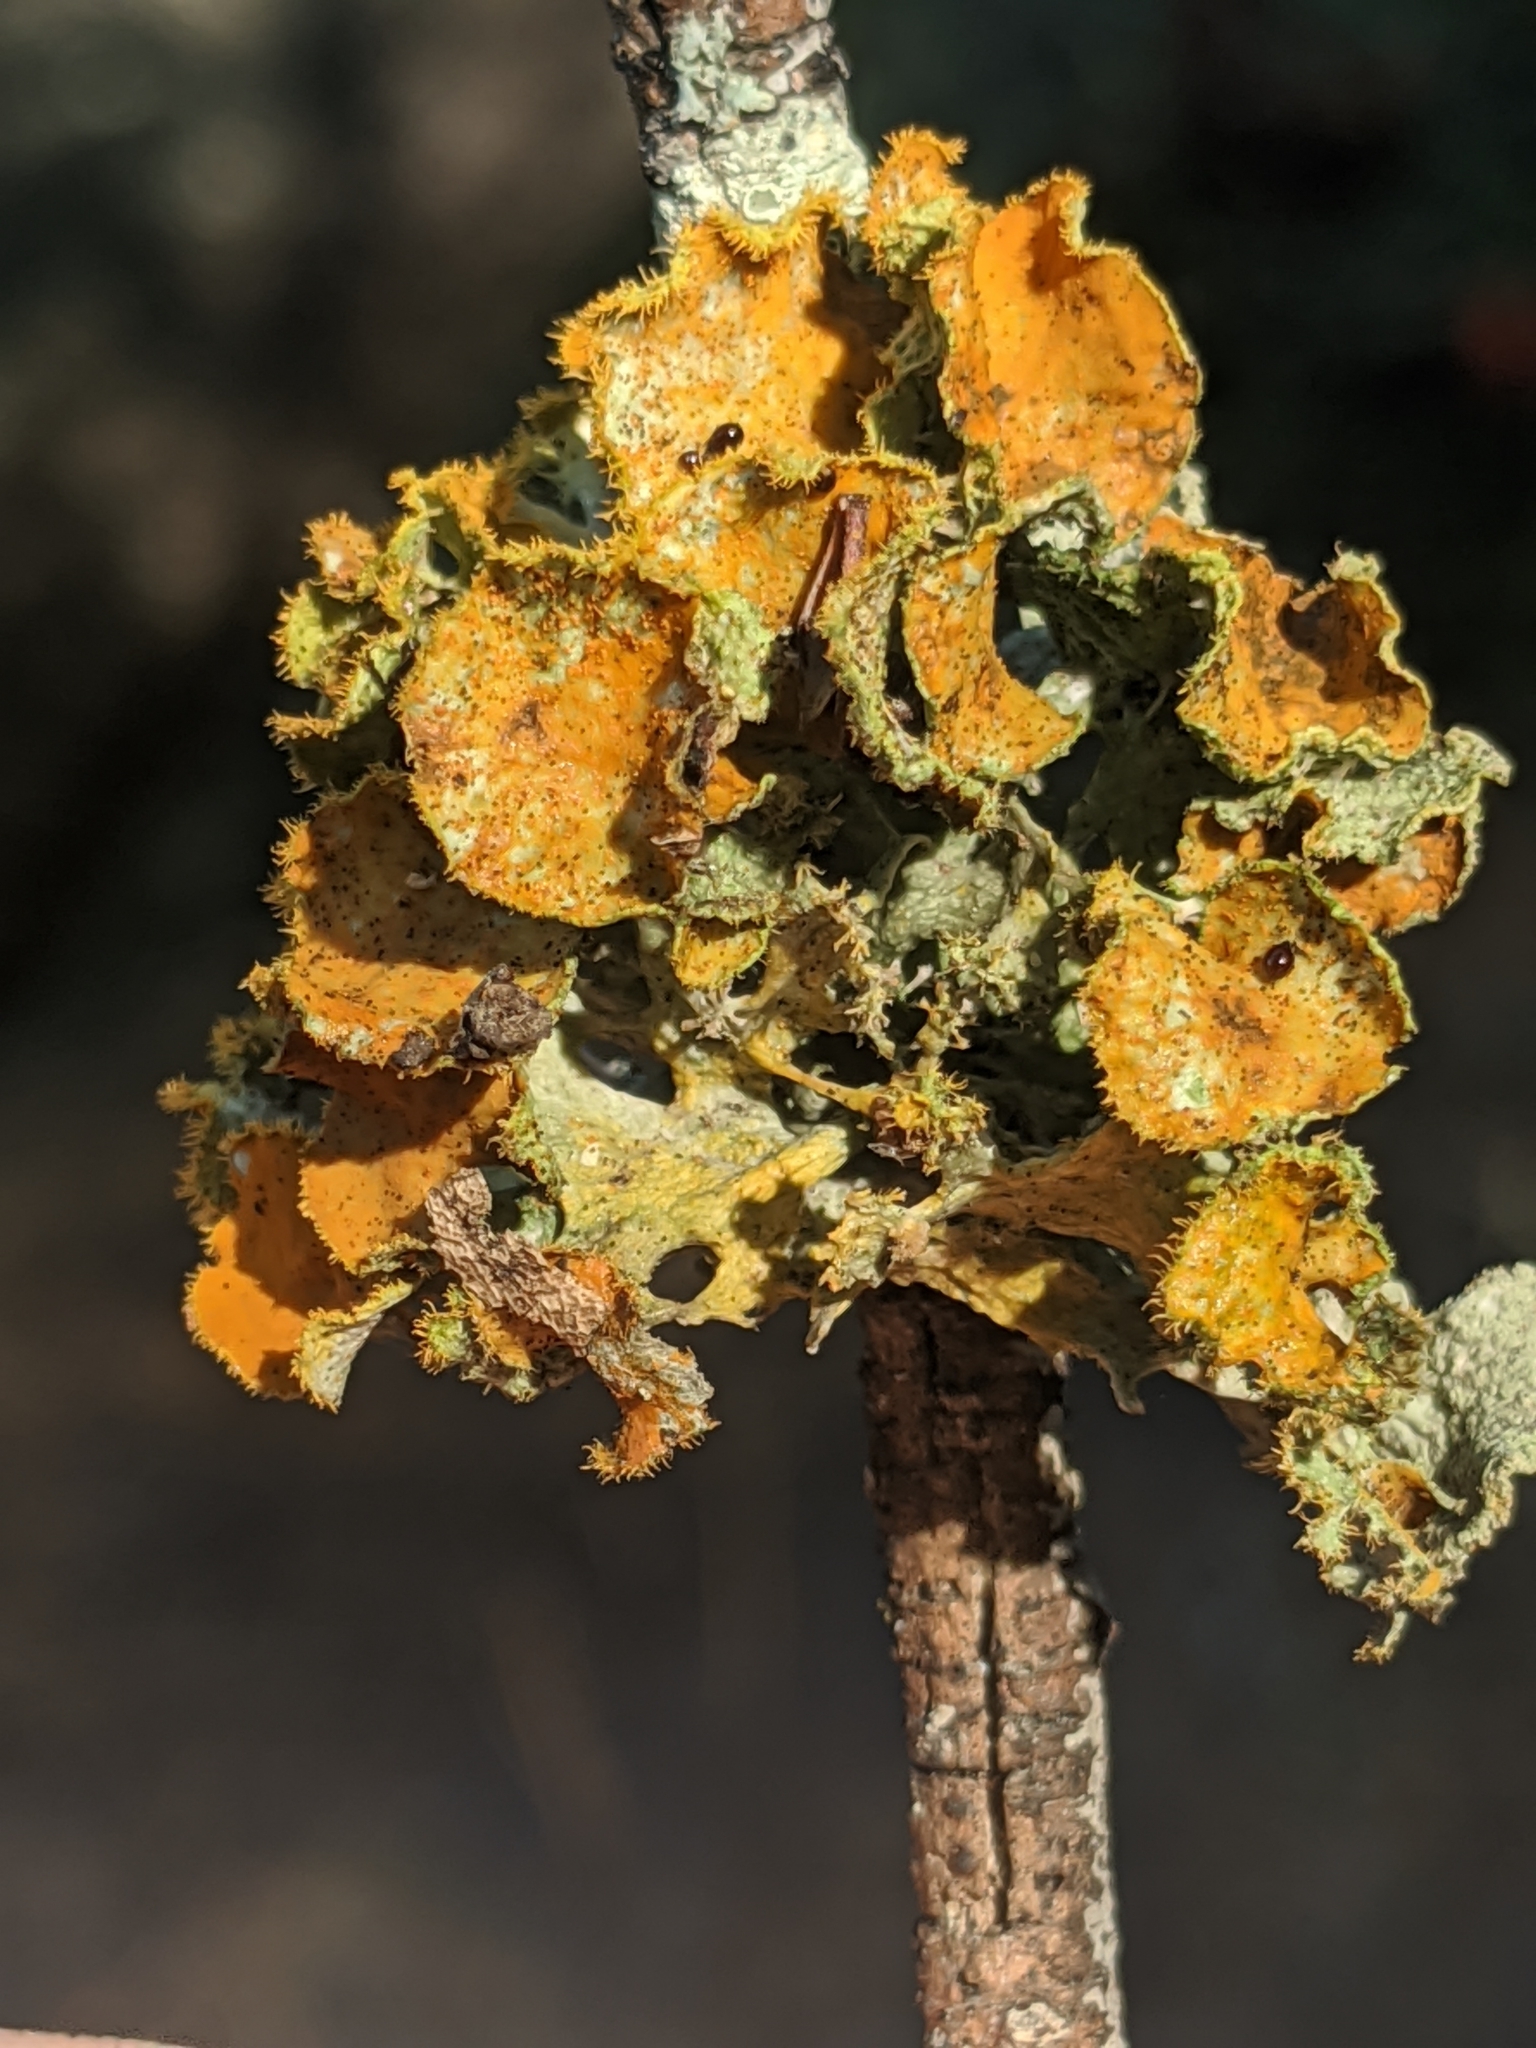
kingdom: Fungi
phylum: Ascomycota
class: Lecanoromycetes
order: Teloschistales
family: Teloschistaceae
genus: Niorma
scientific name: Niorma chrysophthalma
